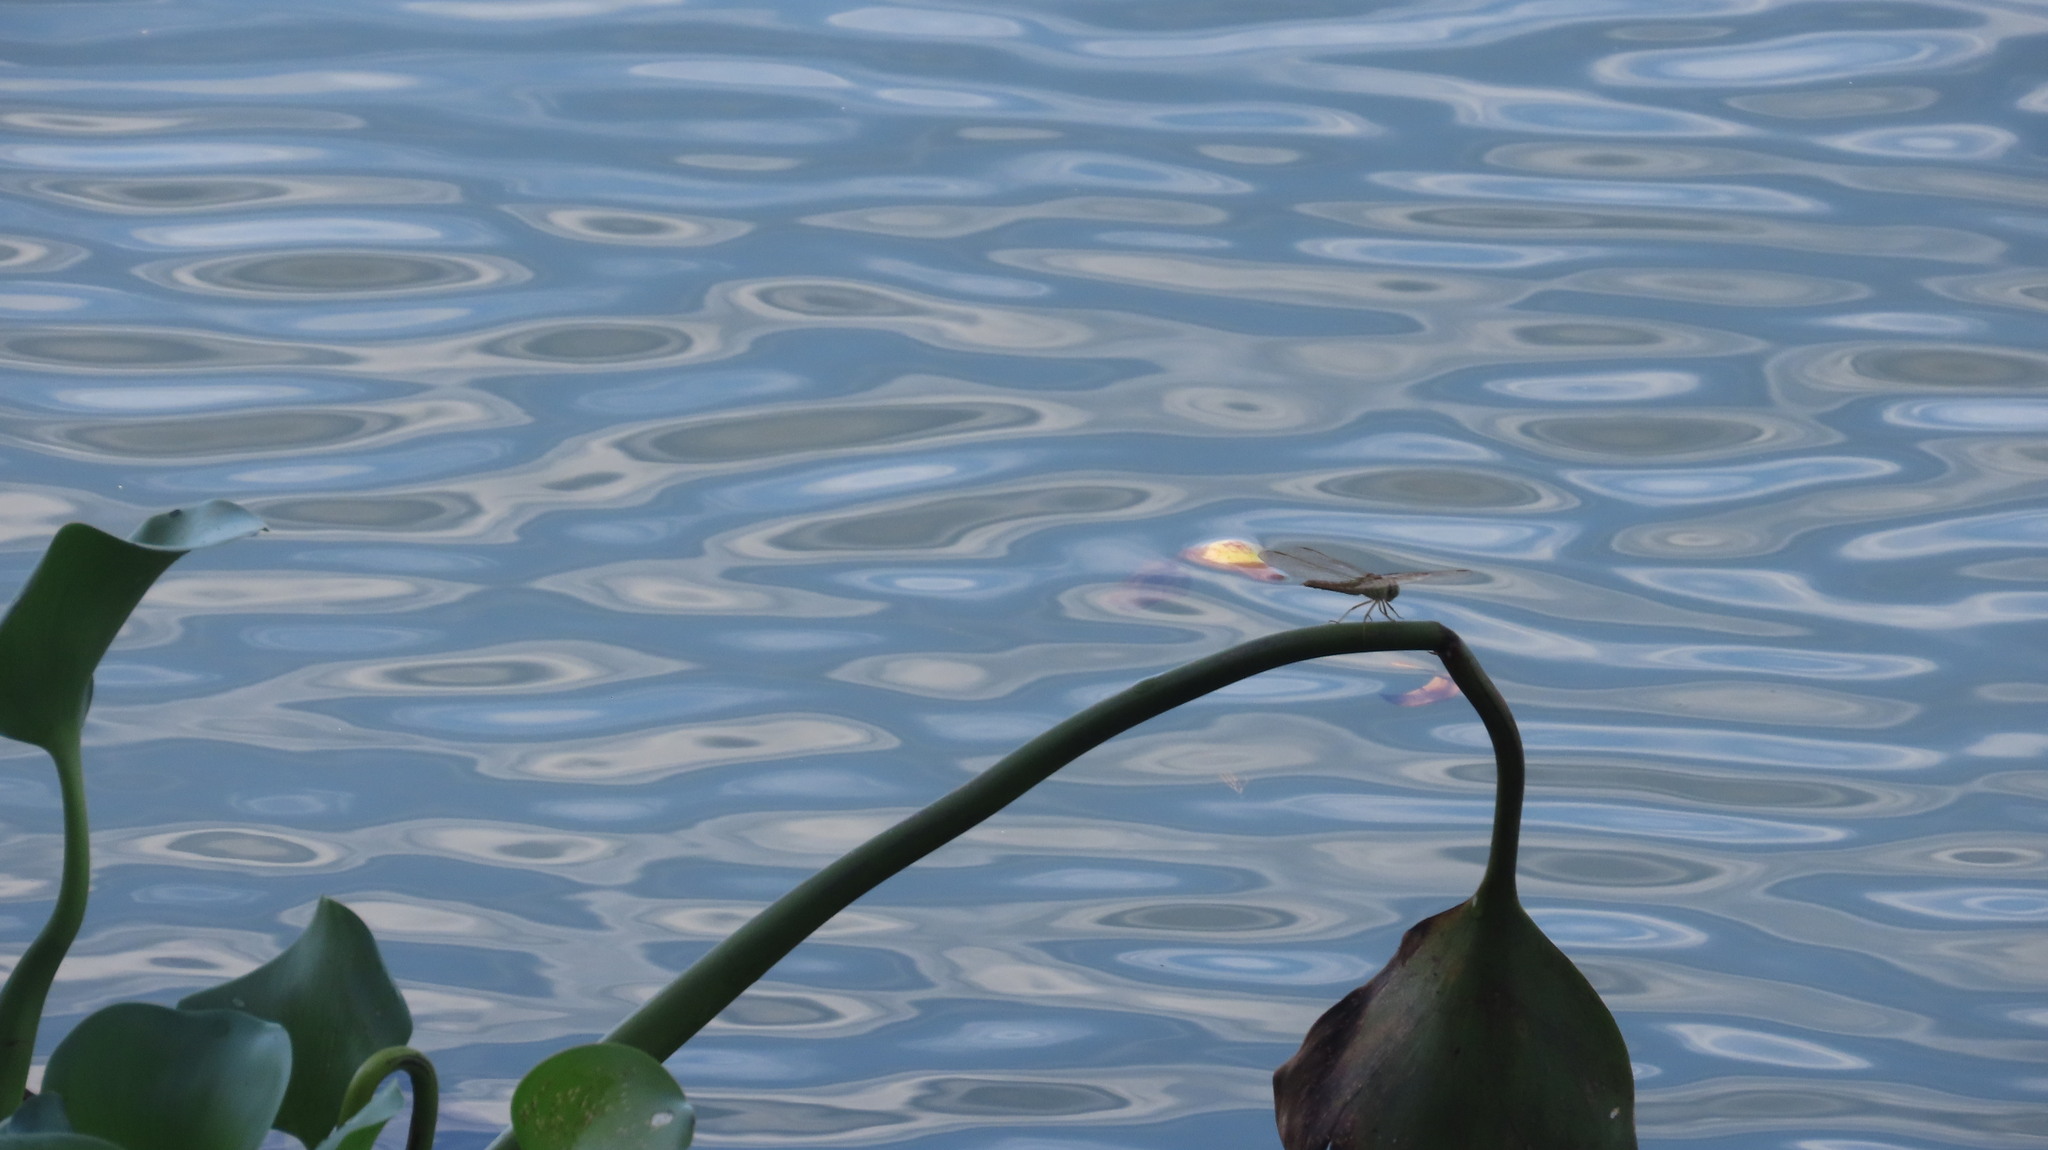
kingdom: Animalia
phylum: Arthropoda
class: Insecta
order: Odonata
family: Libellulidae
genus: Brachythemis
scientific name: Brachythemis contaminata
